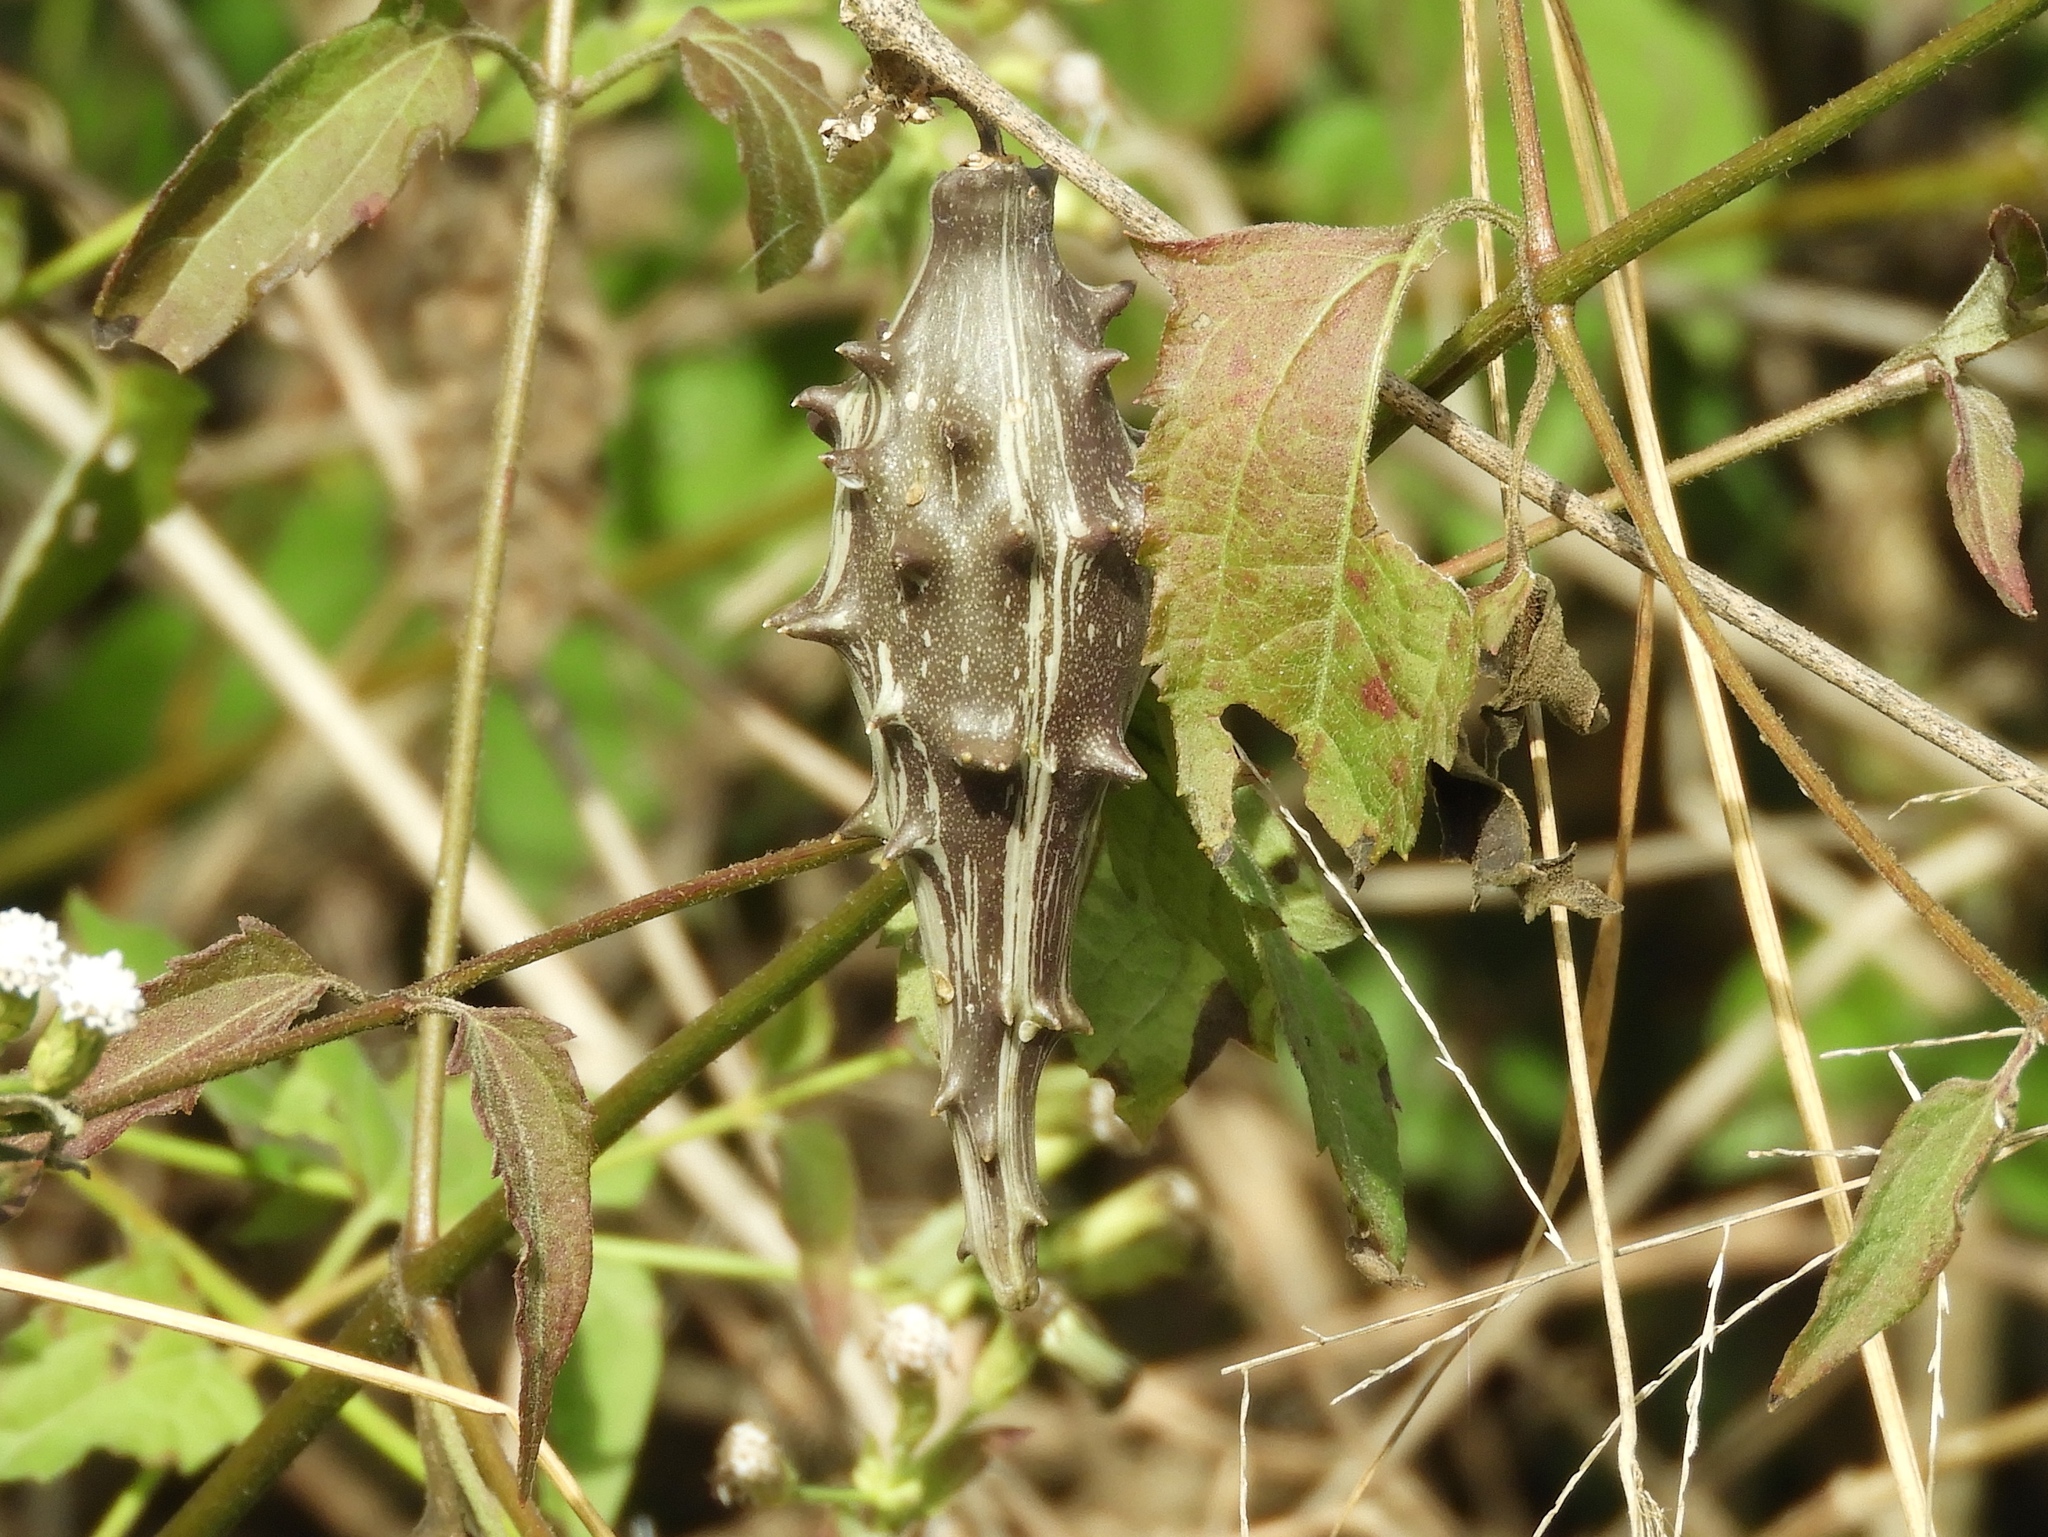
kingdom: Plantae
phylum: Tracheophyta
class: Magnoliopsida
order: Gentianales
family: Apocynaceae
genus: Dictyanthus
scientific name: Dictyanthus
